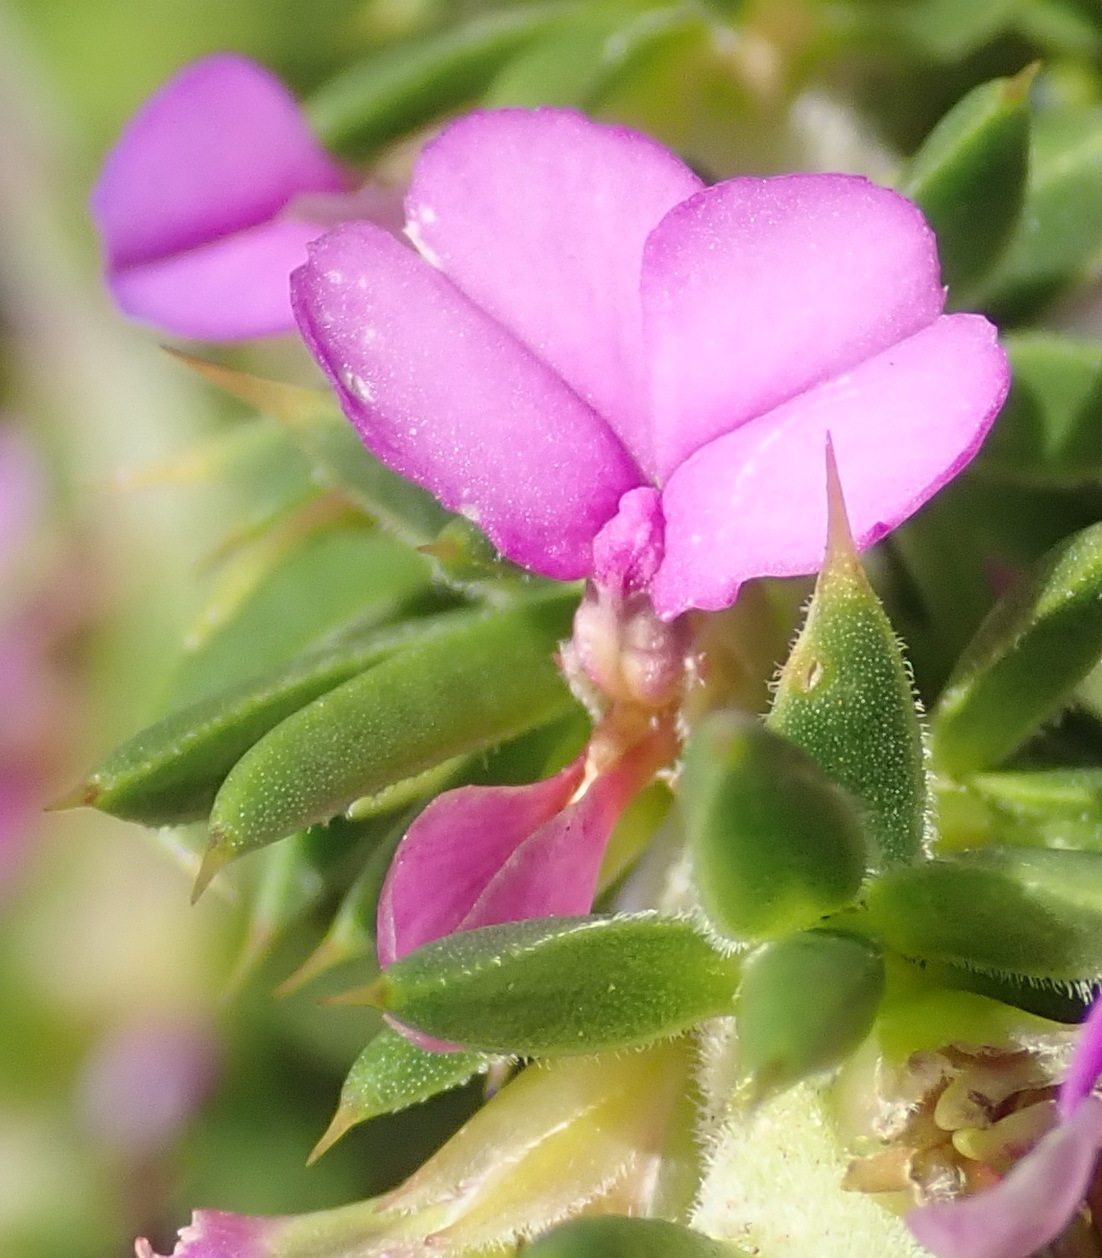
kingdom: Plantae
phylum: Tracheophyta
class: Magnoliopsida
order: Fabales
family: Polygalaceae
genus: Muraltia
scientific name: Muraltia heisteria
